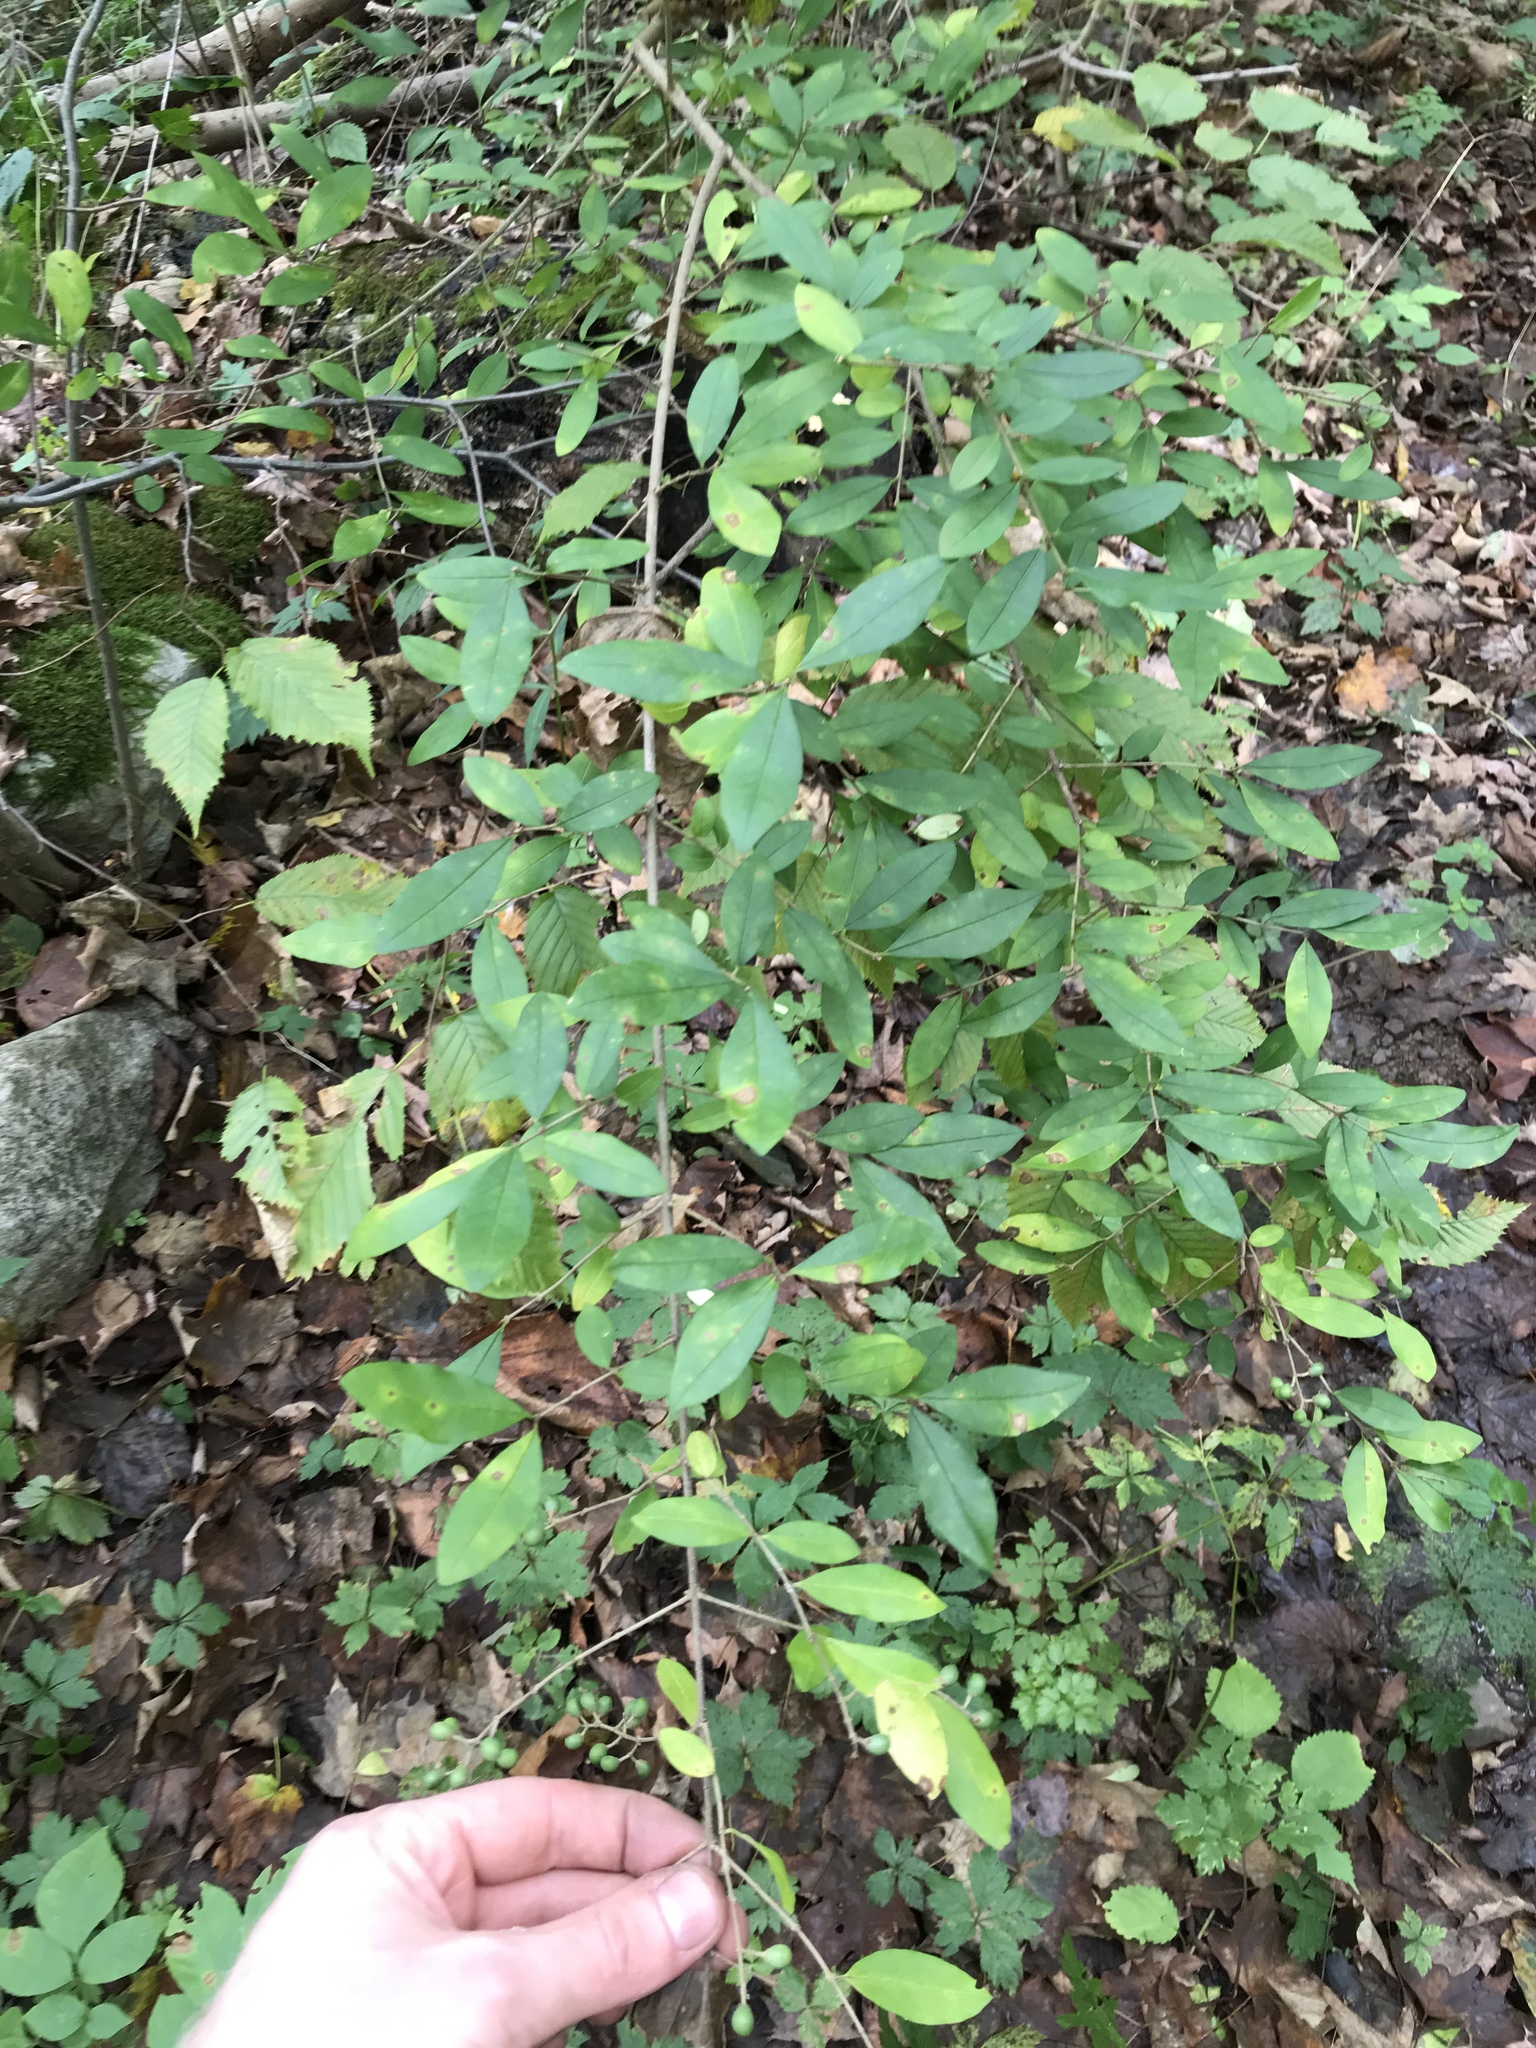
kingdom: Plantae
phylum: Tracheophyta
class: Magnoliopsida
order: Lamiales
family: Oleaceae
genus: Ligustrum
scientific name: Ligustrum obtusifolium
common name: Border privet
